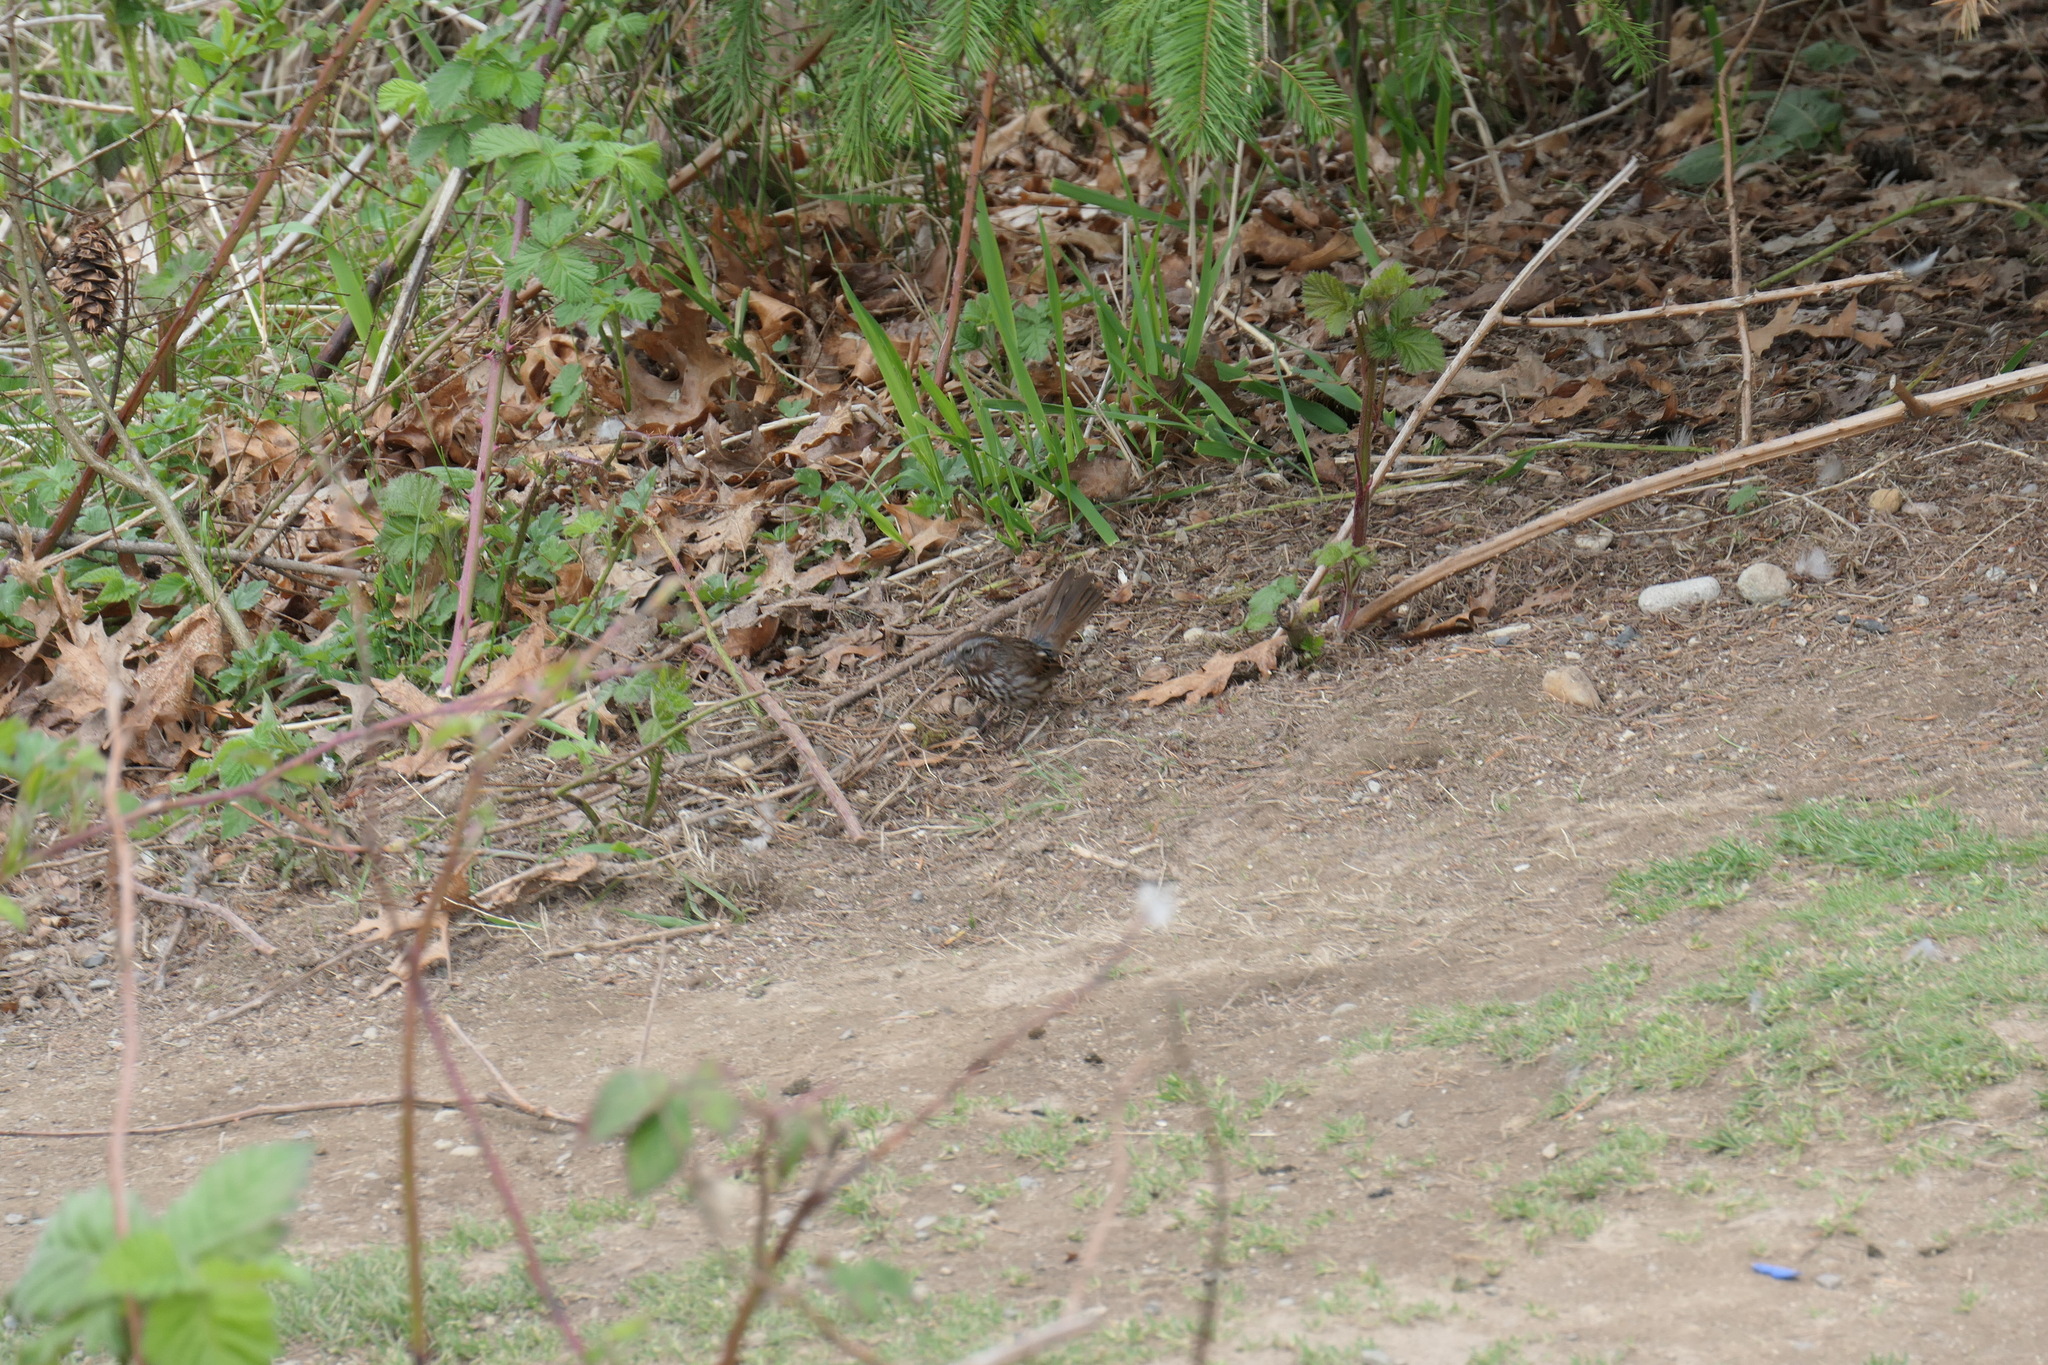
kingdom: Animalia
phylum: Chordata
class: Aves
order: Passeriformes
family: Passerellidae
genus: Melospiza
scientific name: Melospiza melodia
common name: Song sparrow
